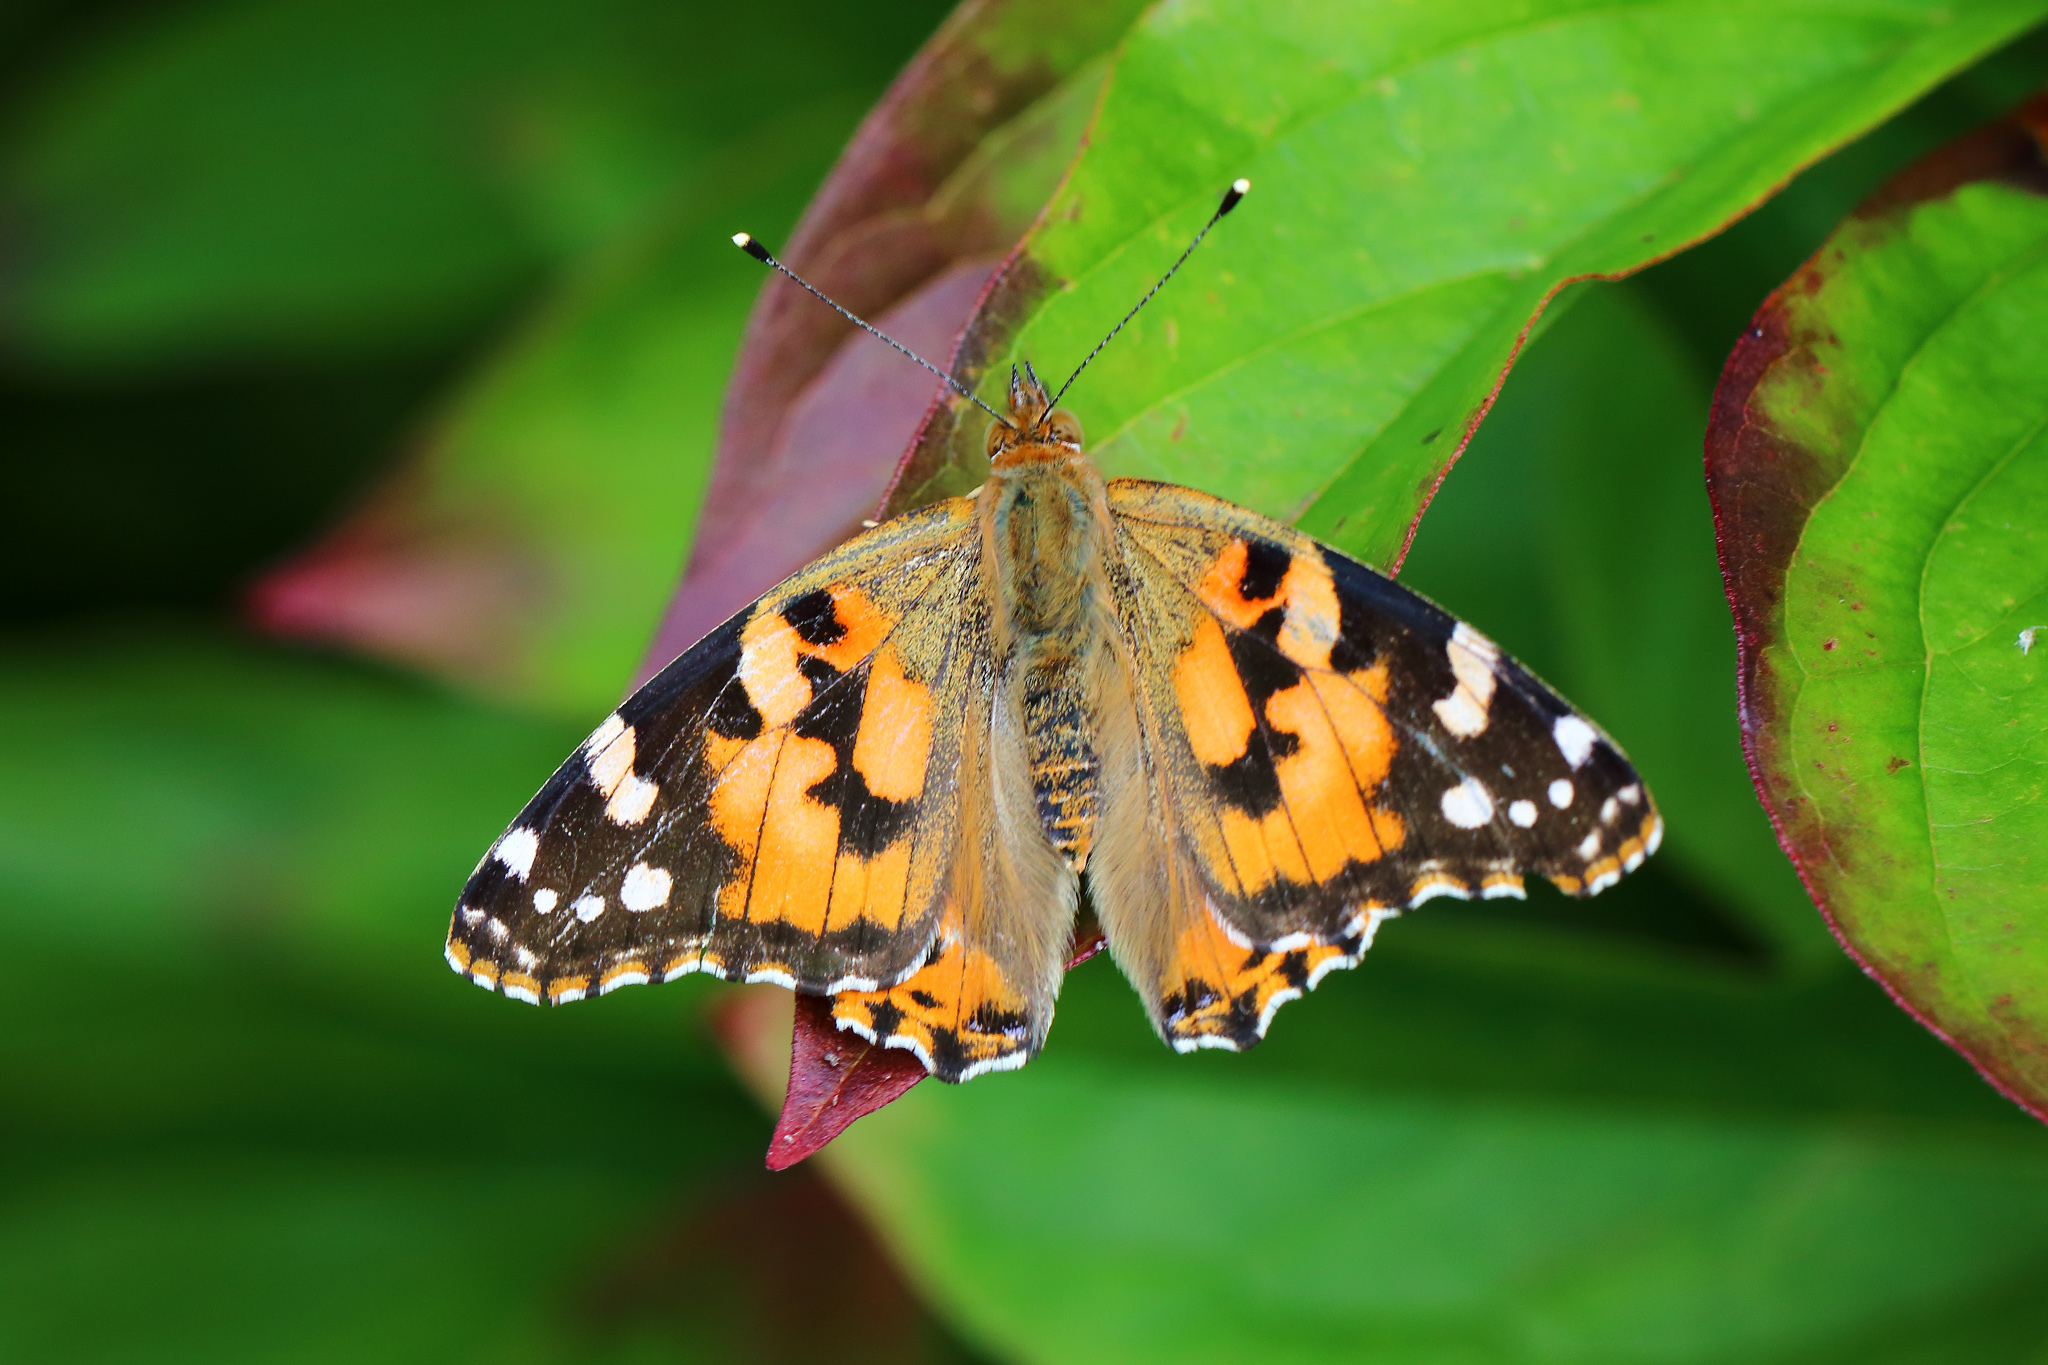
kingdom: Animalia
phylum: Arthropoda
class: Insecta
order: Lepidoptera
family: Nymphalidae
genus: Vanessa
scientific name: Vanessa cardui
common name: Painted lady
